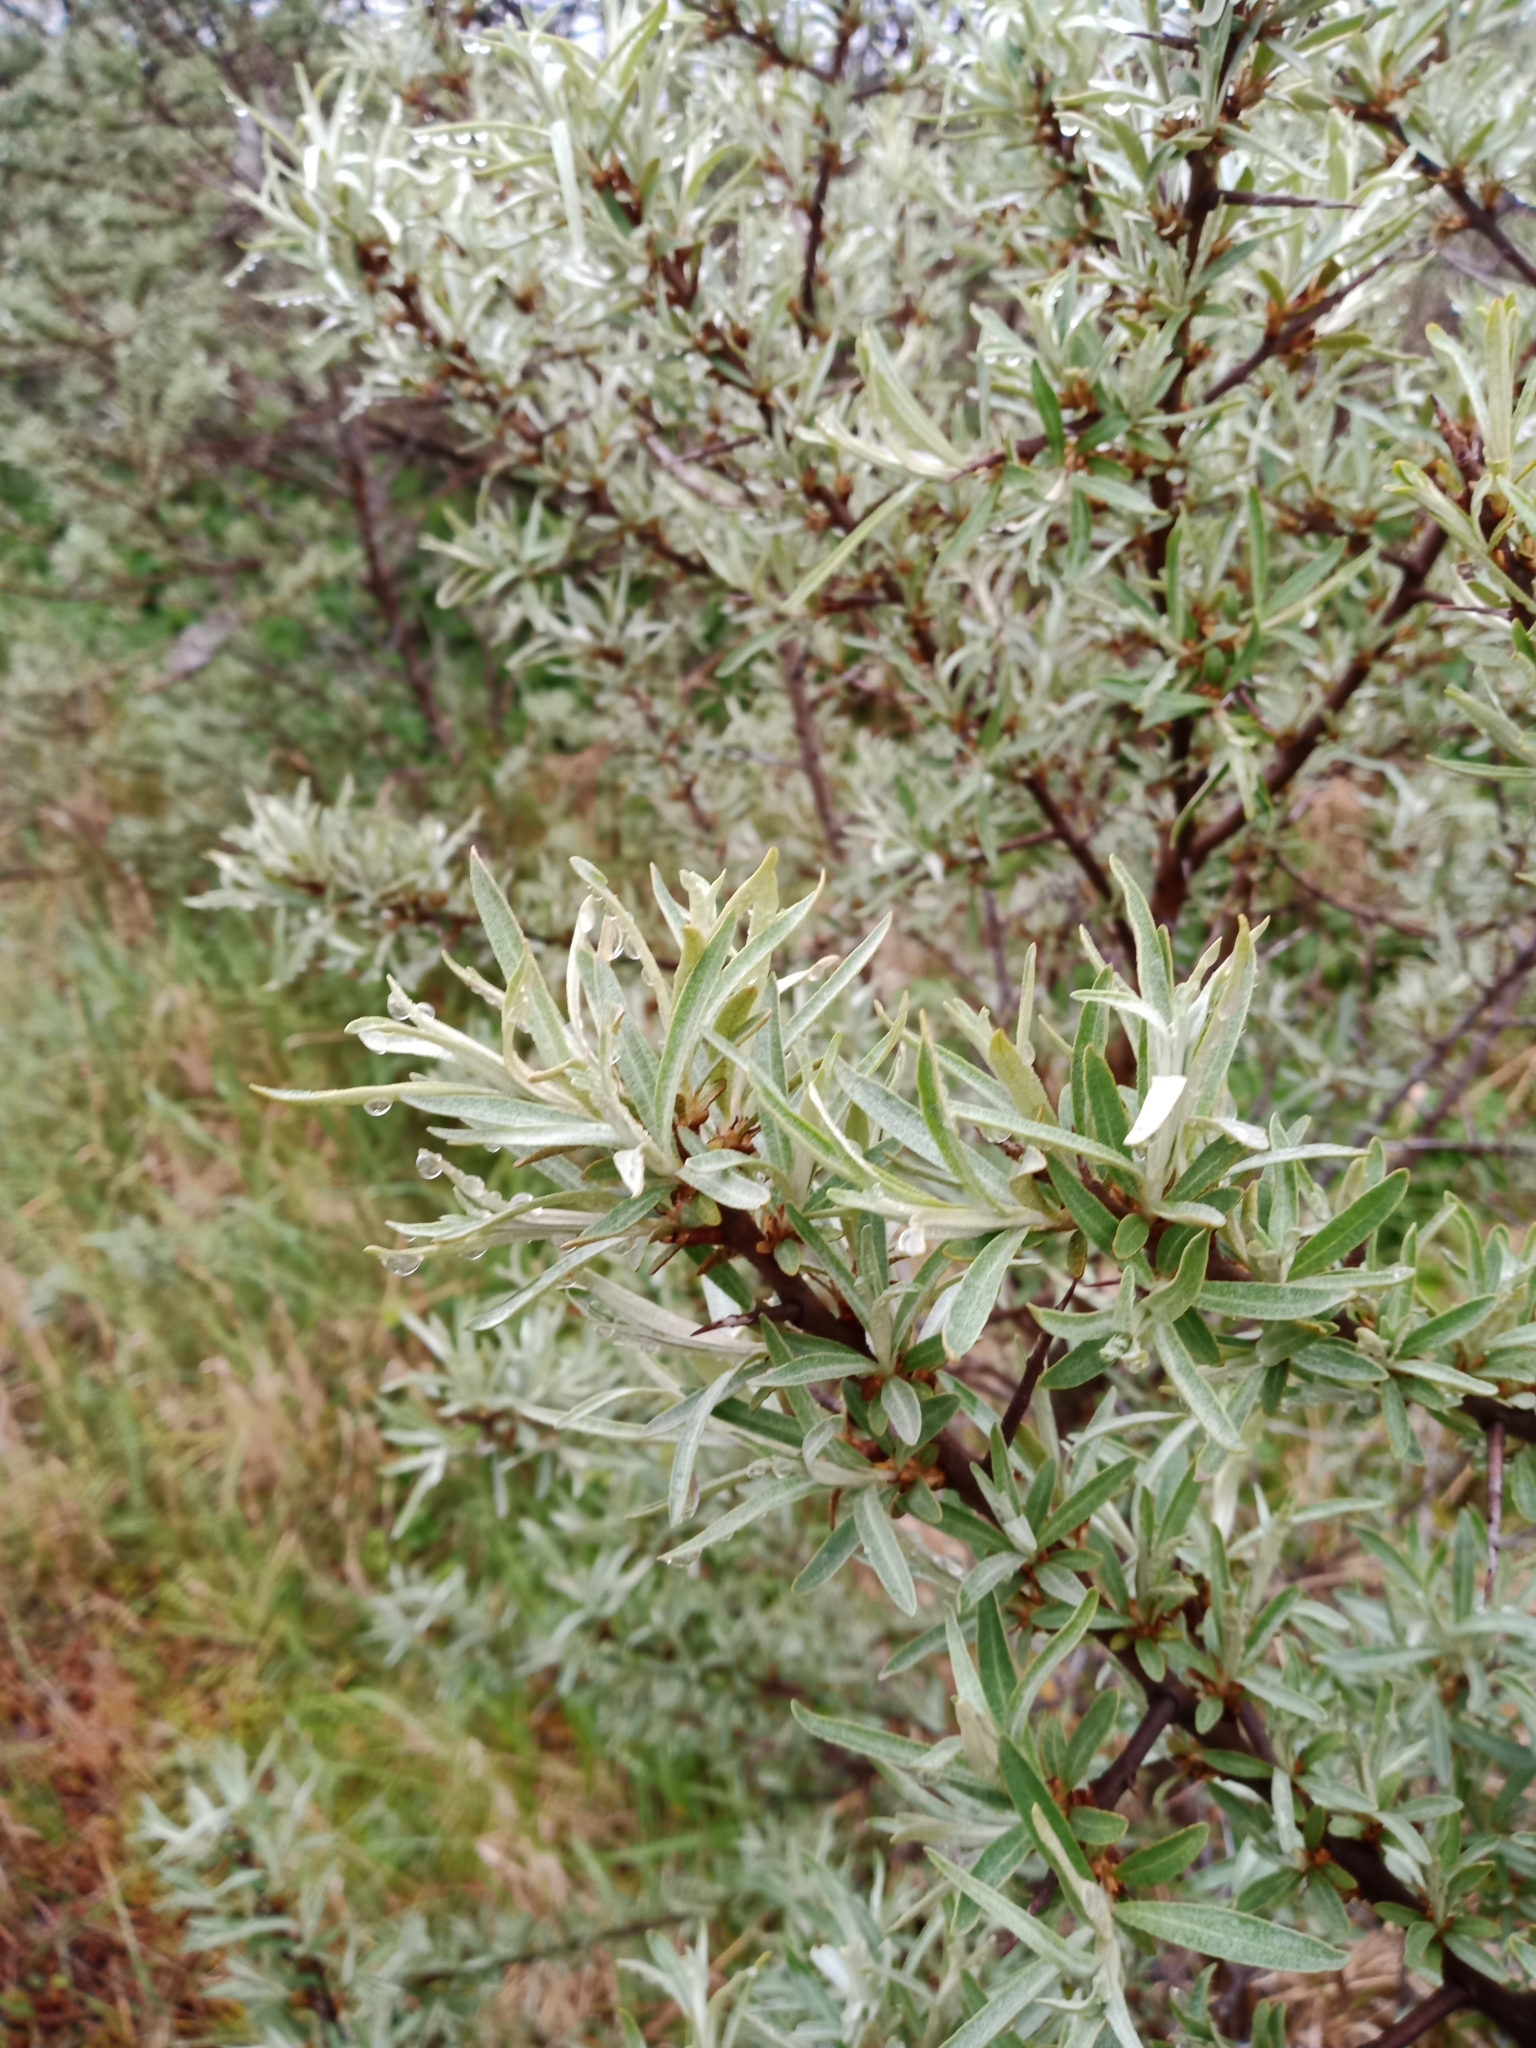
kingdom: Plantae
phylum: Tracheophyta
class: Magnoliopsida
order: Rosales
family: Elaeagnaceae
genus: Hippophae
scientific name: Hippophae rhamnoides
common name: Sea-buckthorn
